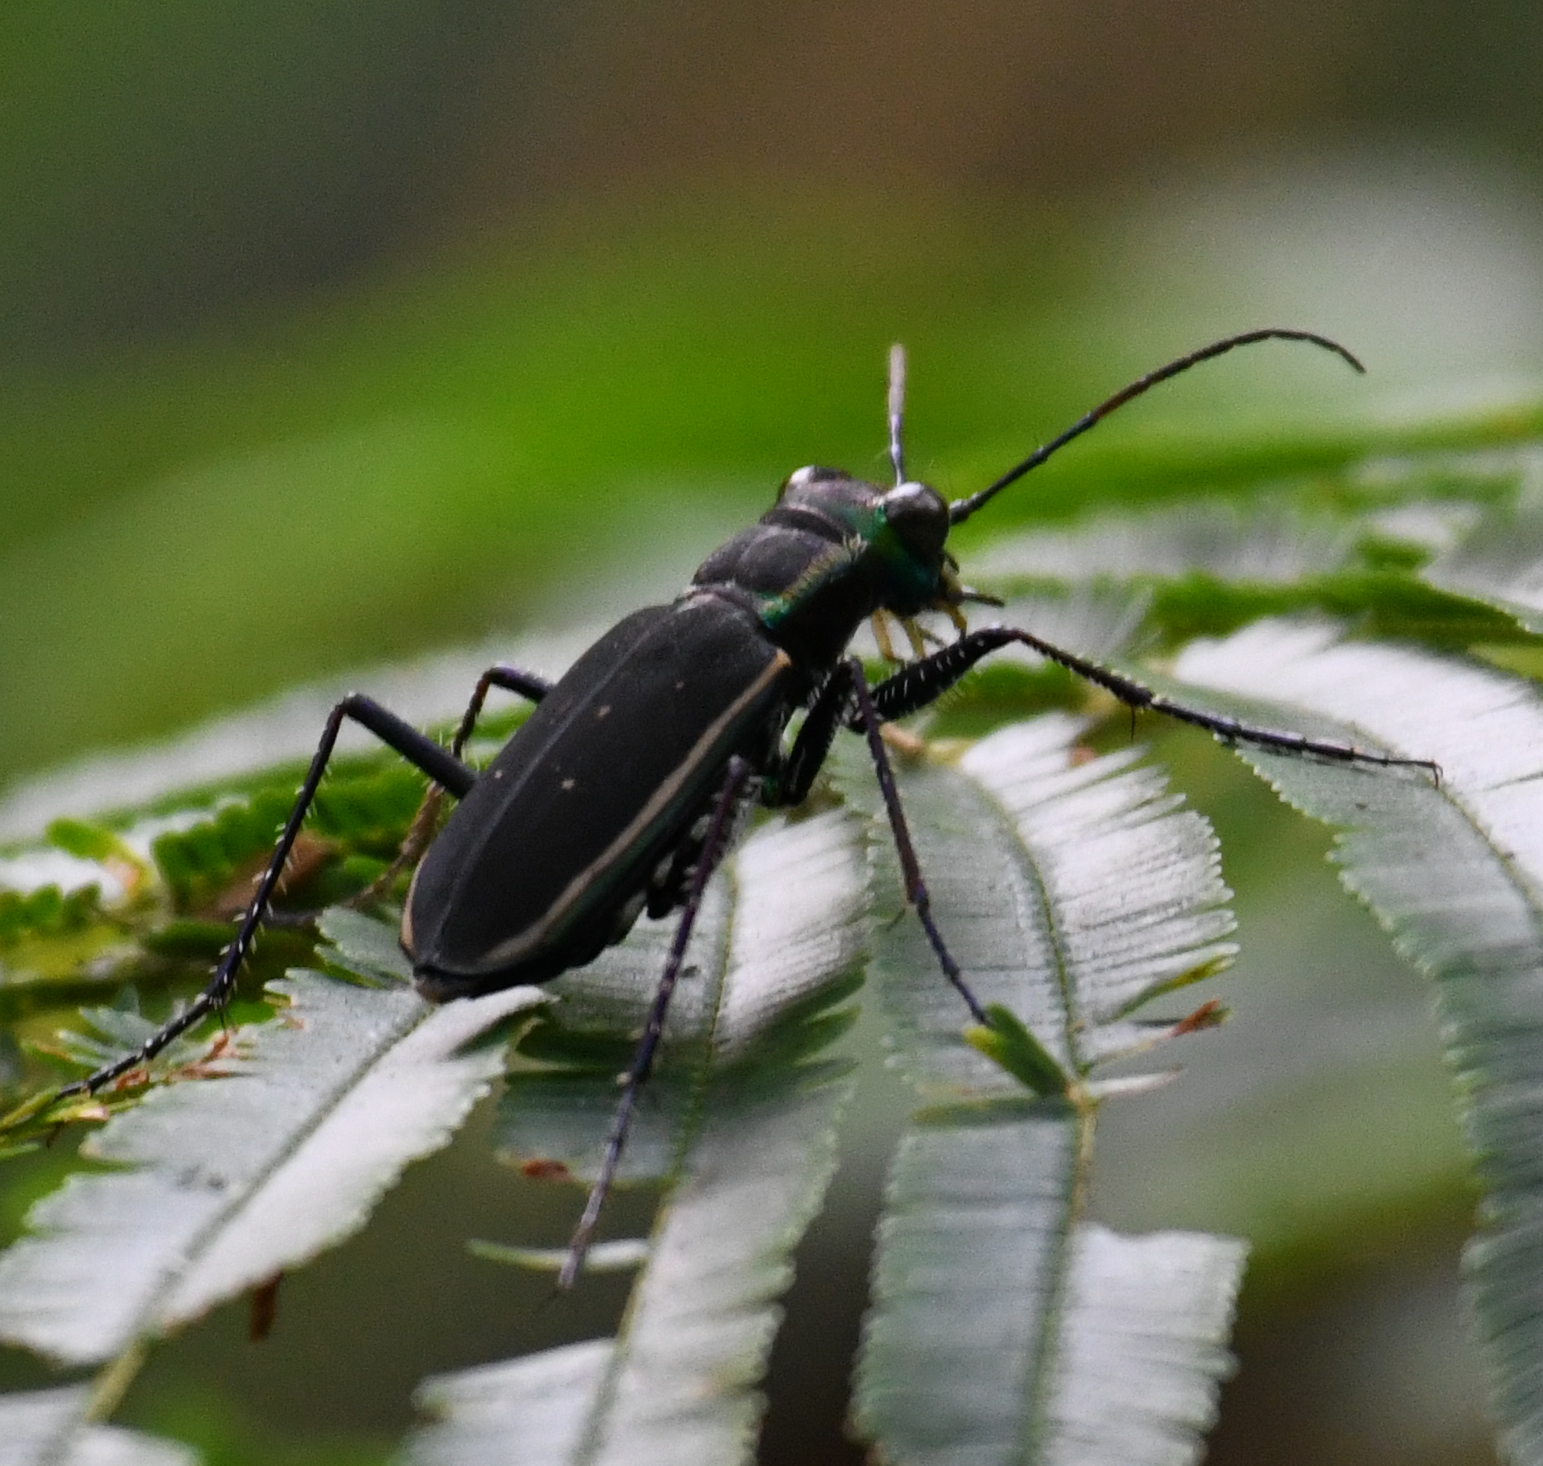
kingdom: Animalia
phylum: Arthropoda
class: Insecta
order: Coleoptera
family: Carabidae
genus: Cicindela
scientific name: Cicindela cincta
